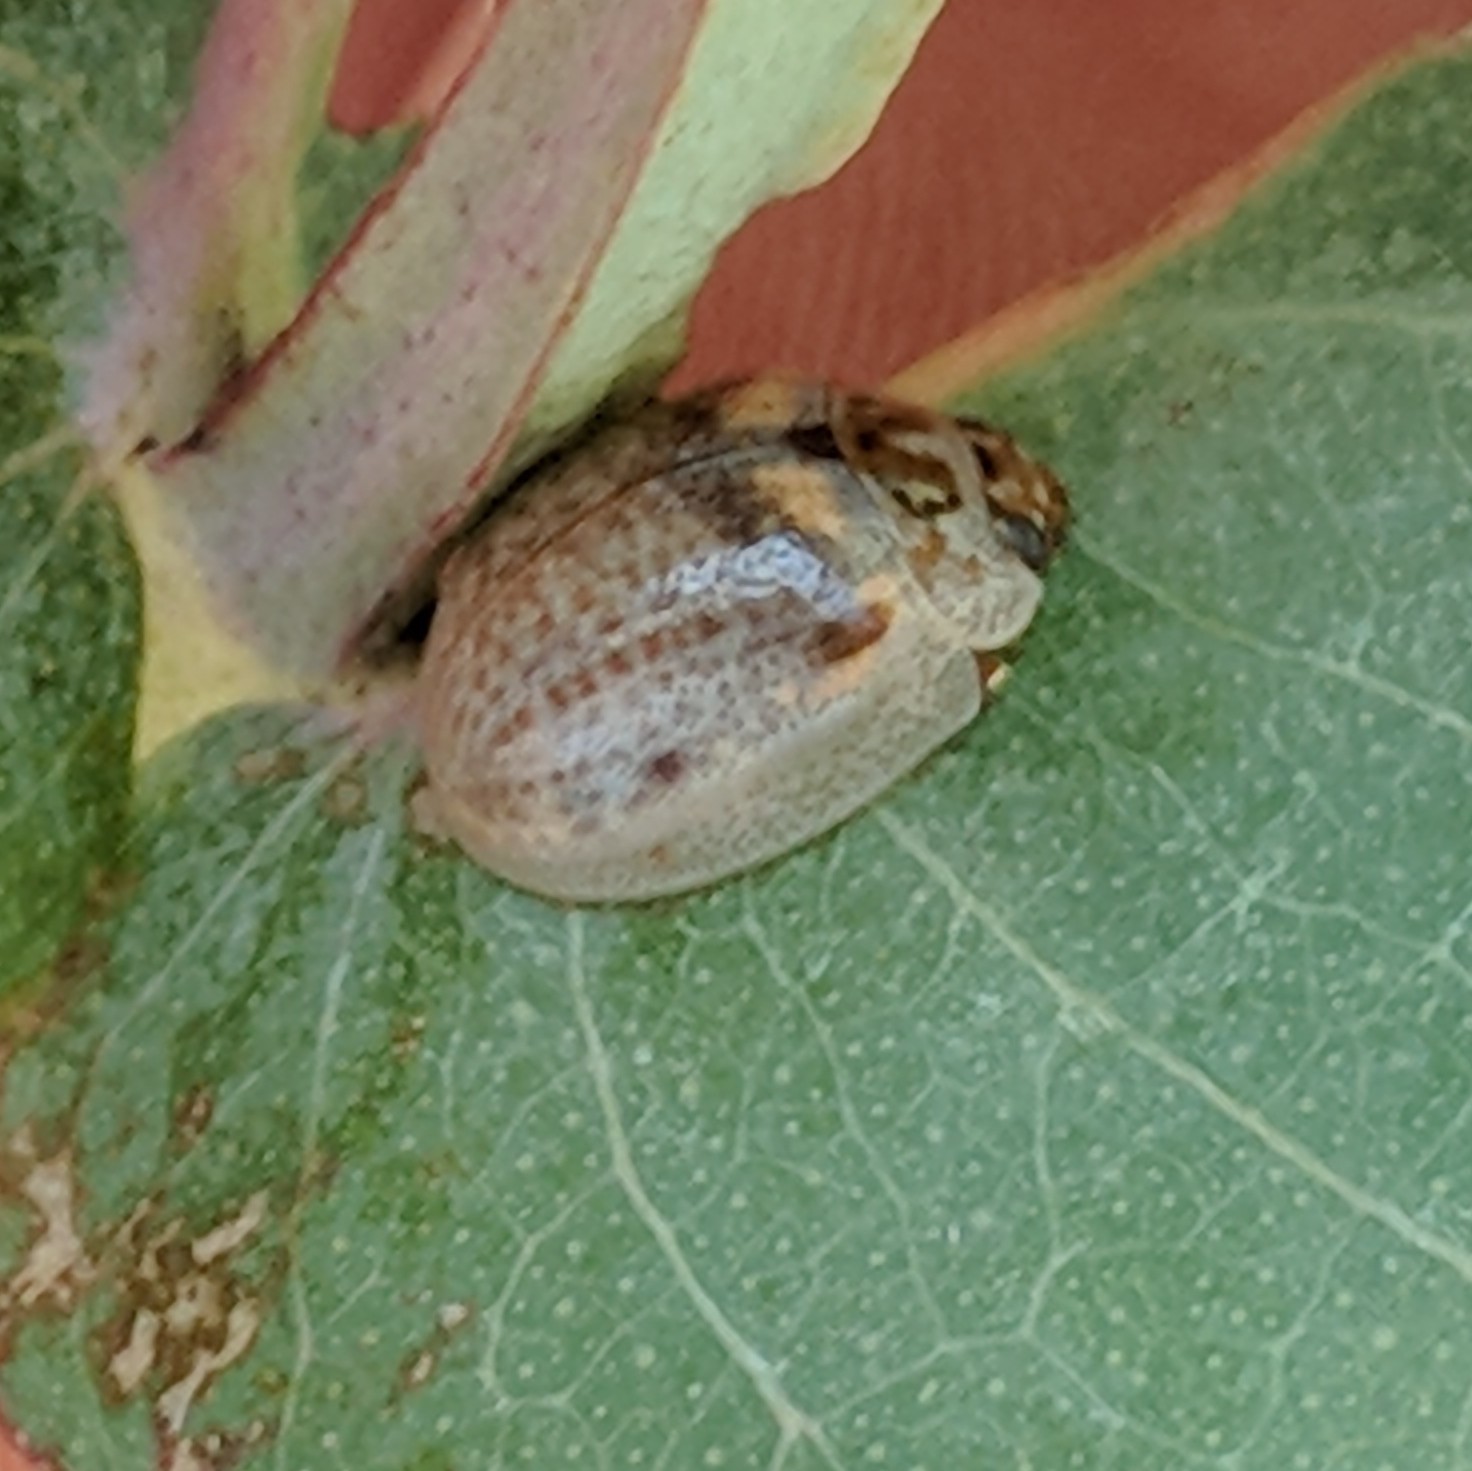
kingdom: Animalia
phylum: Arthropoda
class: Insecta
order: Coleoptera
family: Chrysomelidae
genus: Paropsisterna
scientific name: Paropsisterna m-fuscum
